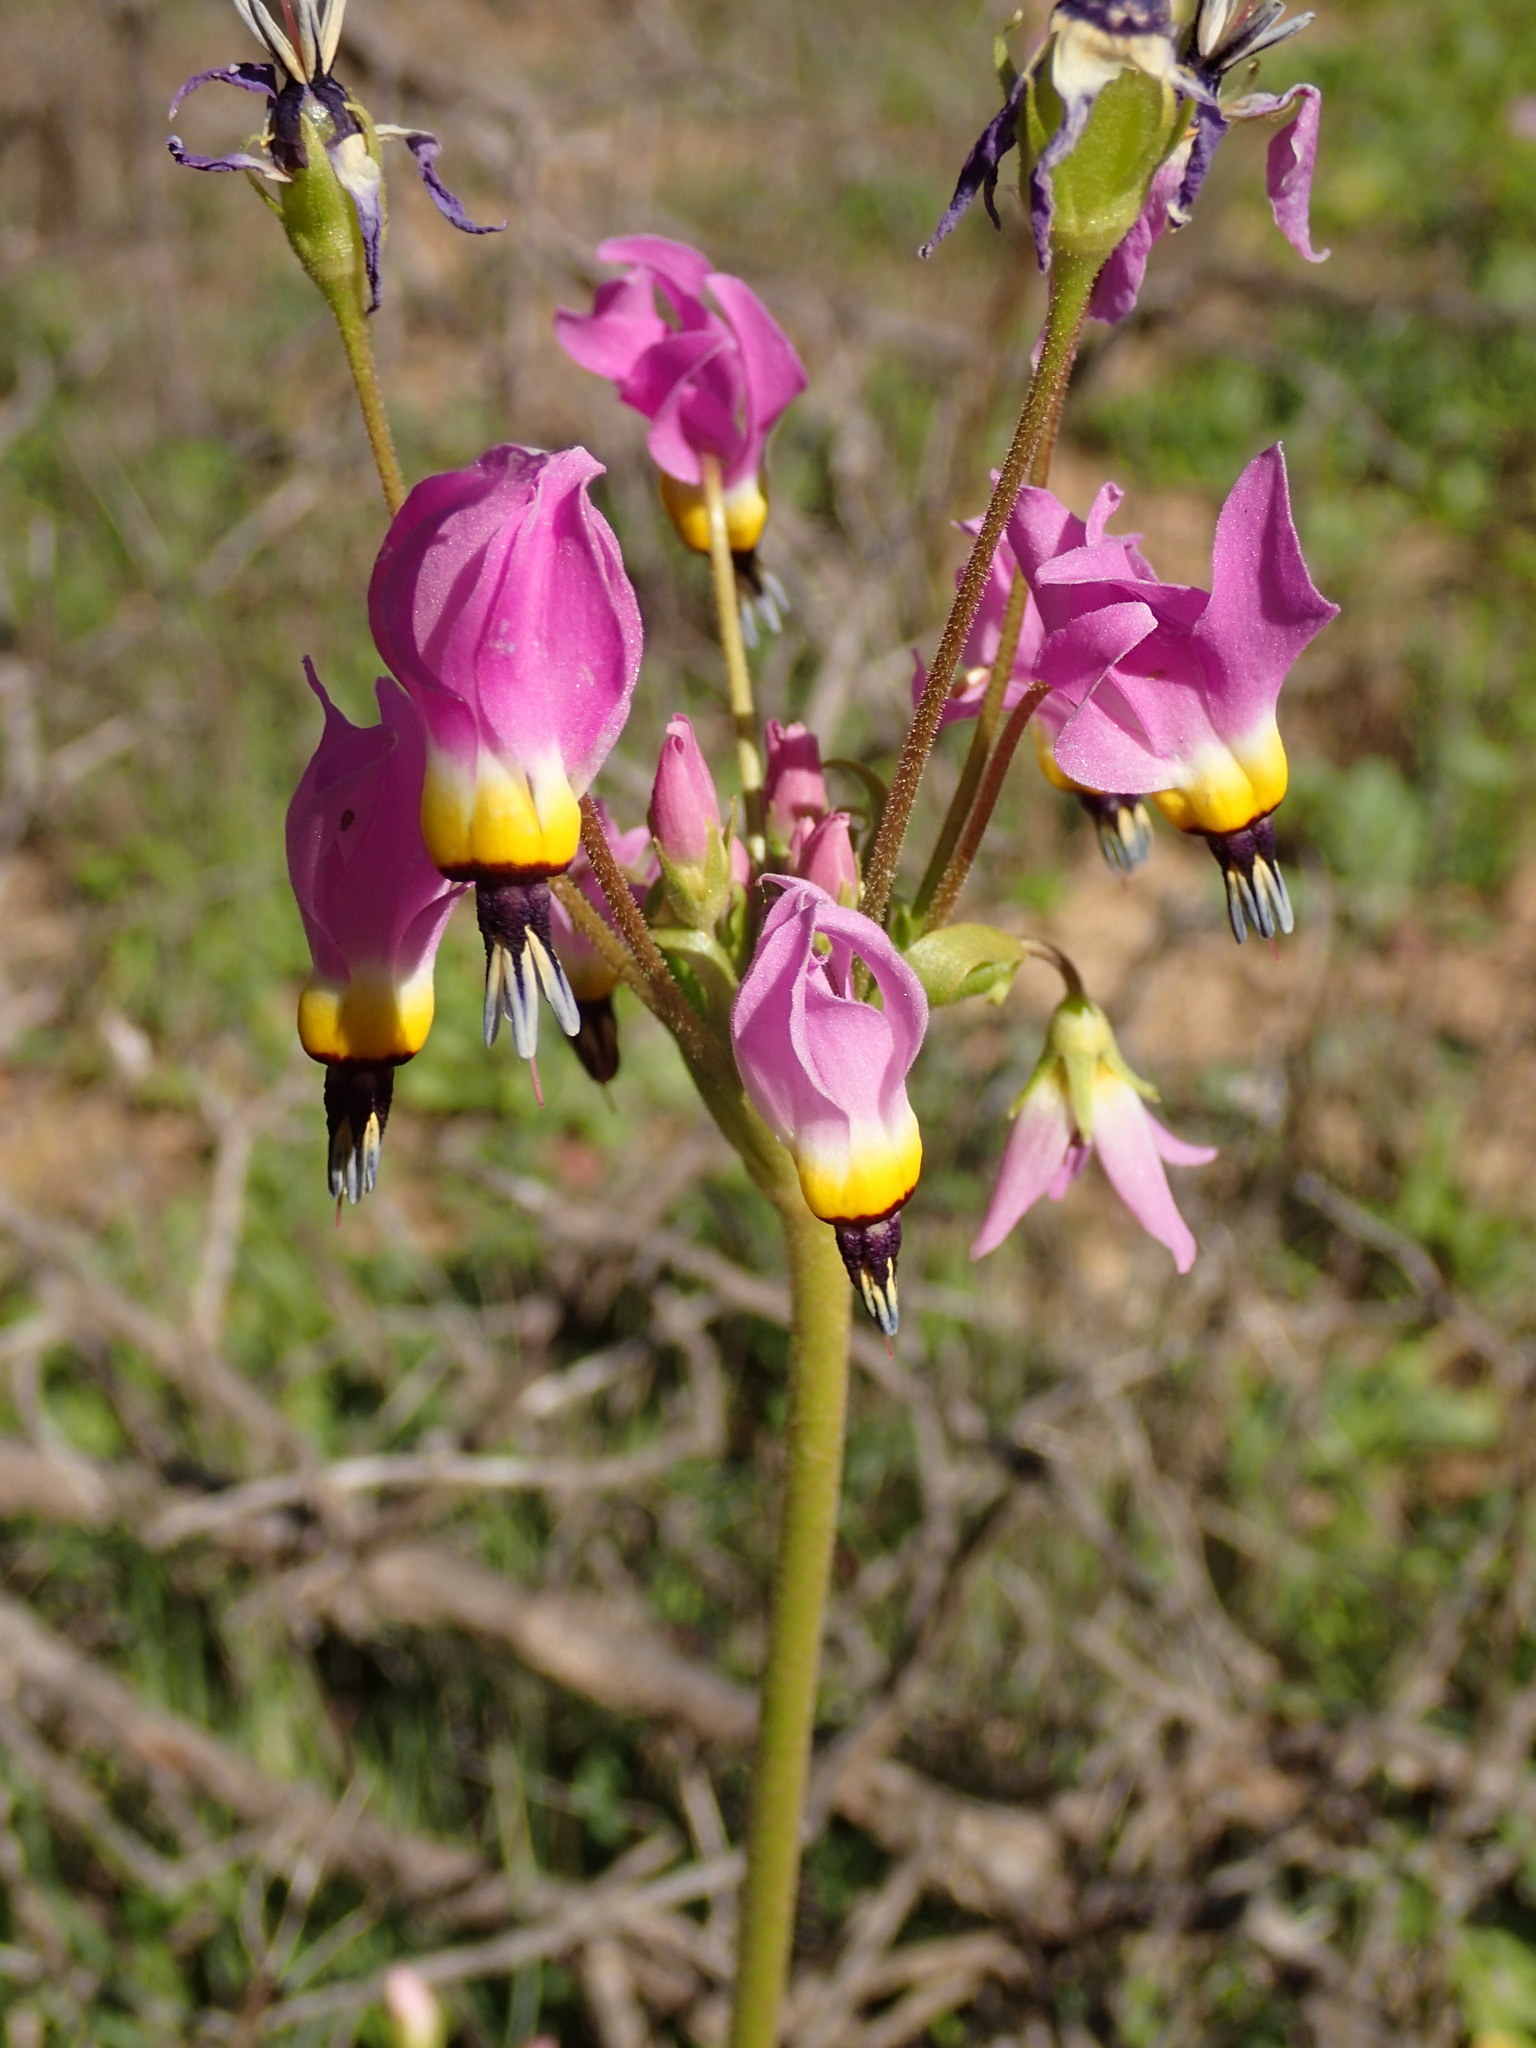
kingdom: Plantae
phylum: Tracheophyta
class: Magnoliopsida
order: Ericales
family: Primulaceae
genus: Dodecatheon
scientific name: Dodecatheon clevelandii
